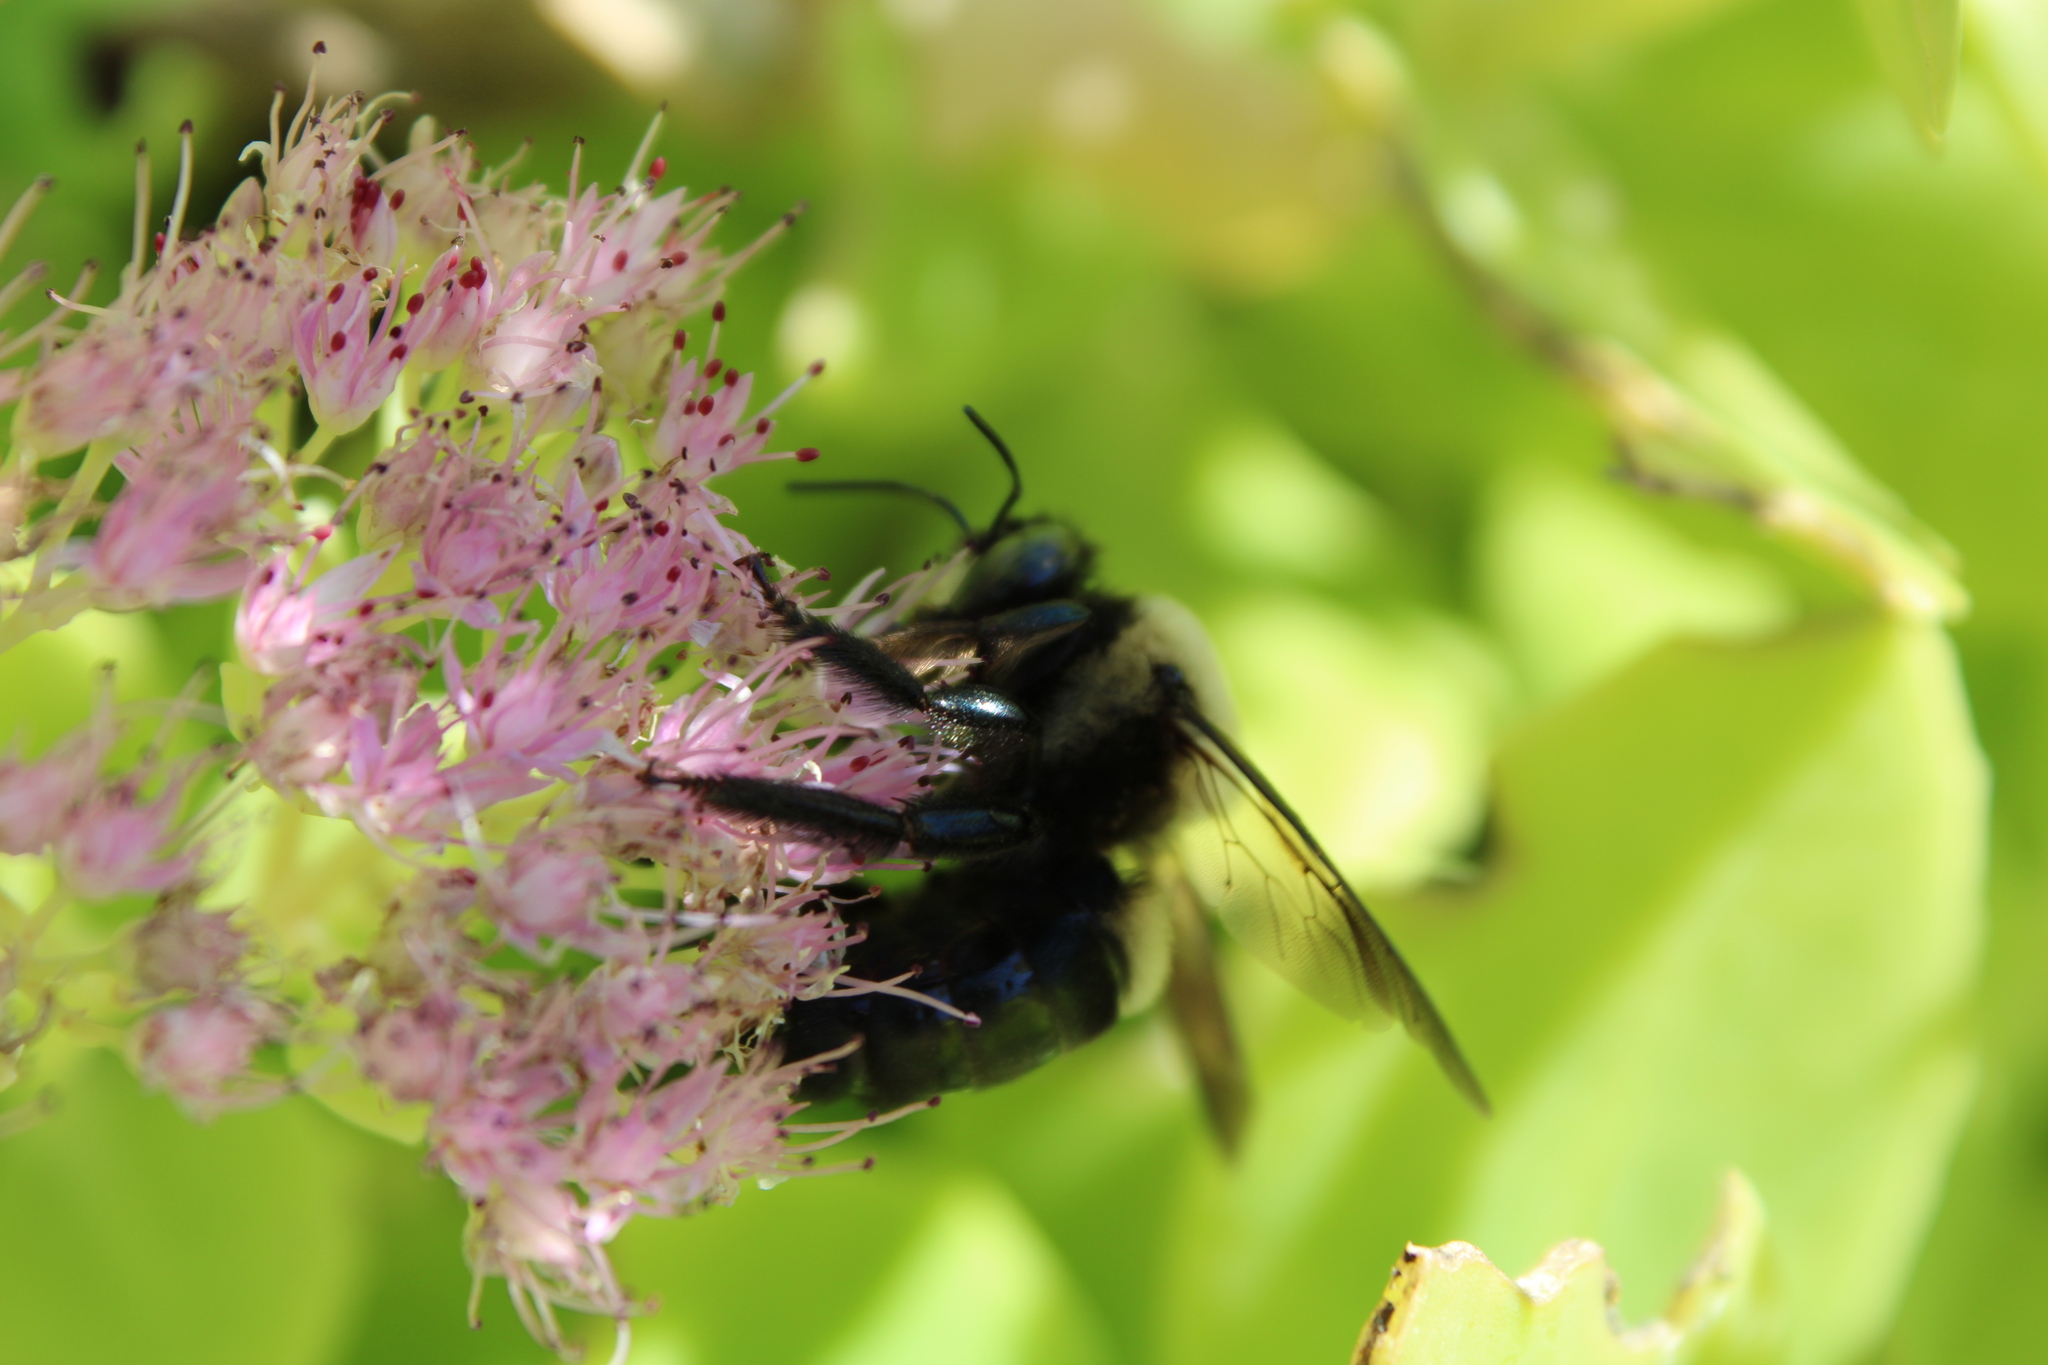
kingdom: Animalia
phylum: Arthropoda
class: Insecta
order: Hymenoptera
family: Apidae
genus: Xylocopa
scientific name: Xylocopa virginica
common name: Carpenter bee
